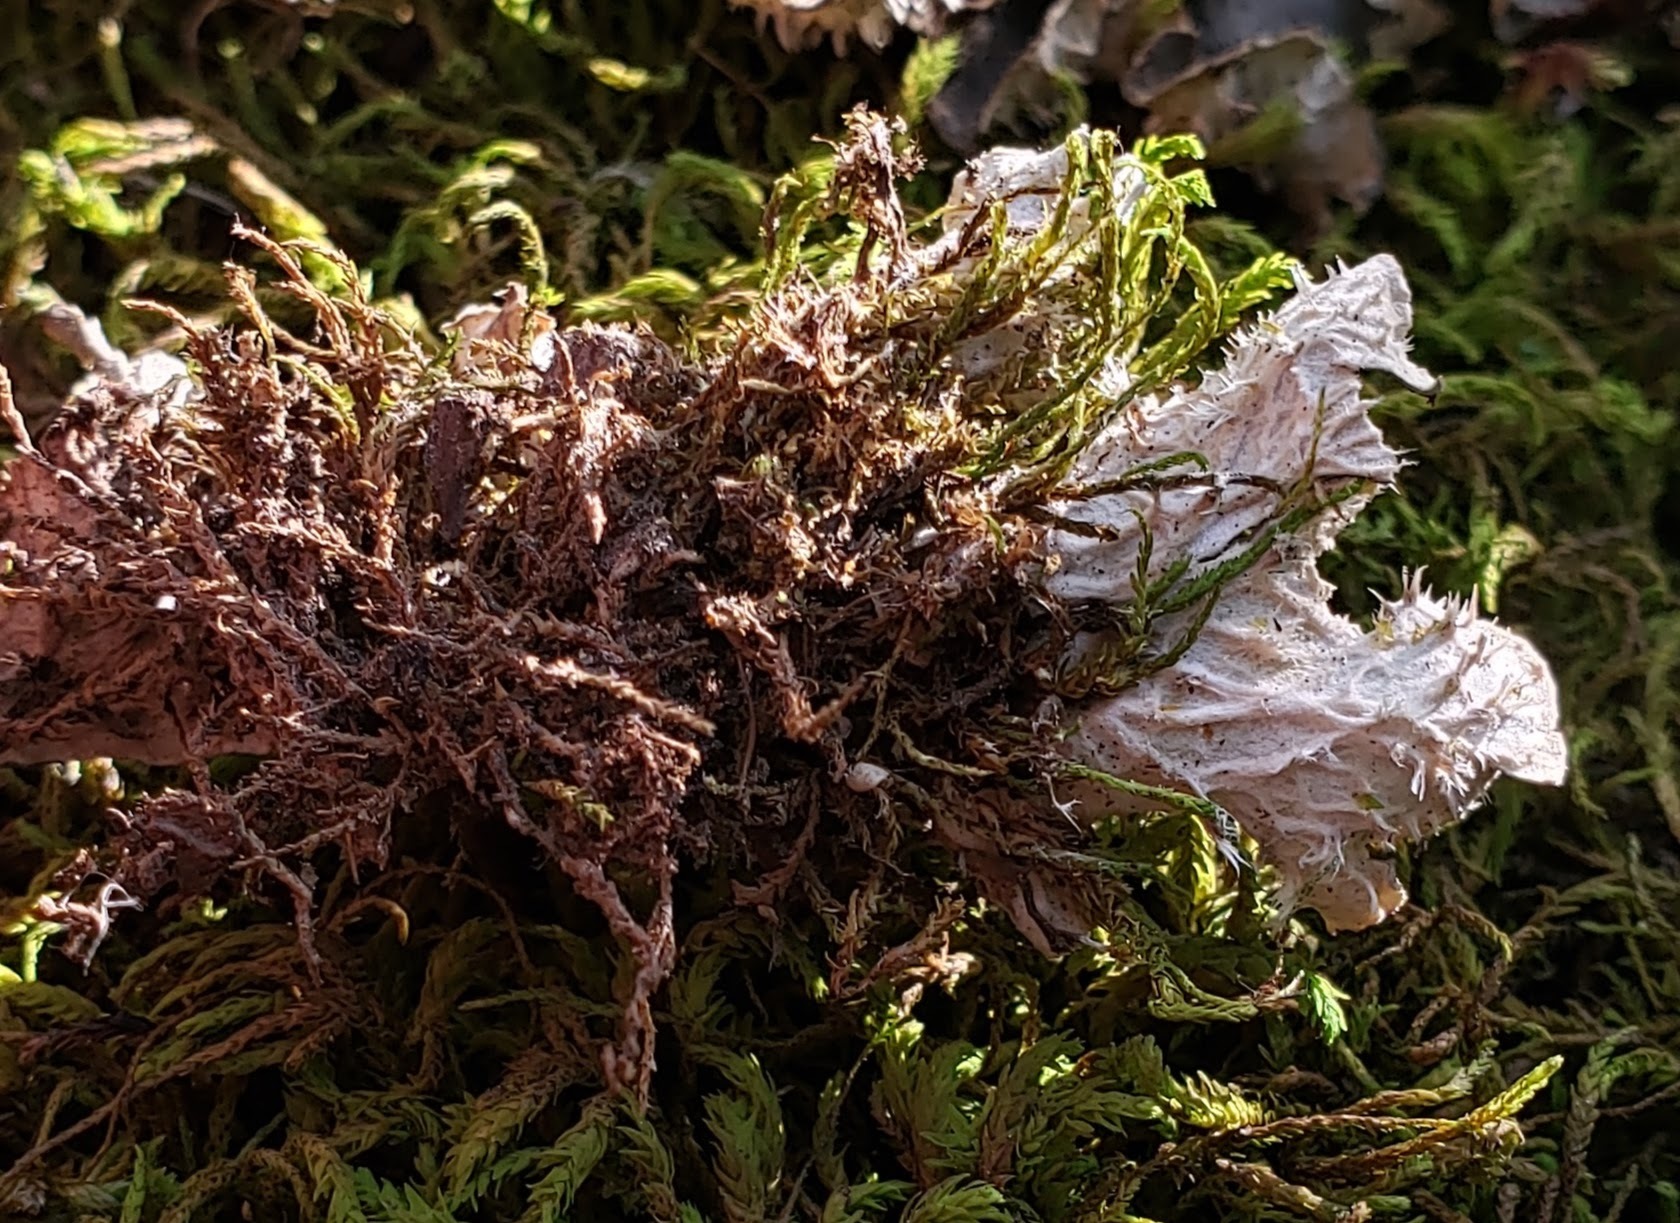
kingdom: Fungi
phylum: Ascomycota
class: Lecanoromycetes
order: Peltigerales
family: Peltigeraceae
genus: Peltigera
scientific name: Peltigera evansiana
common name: Peppered pelt lichen
